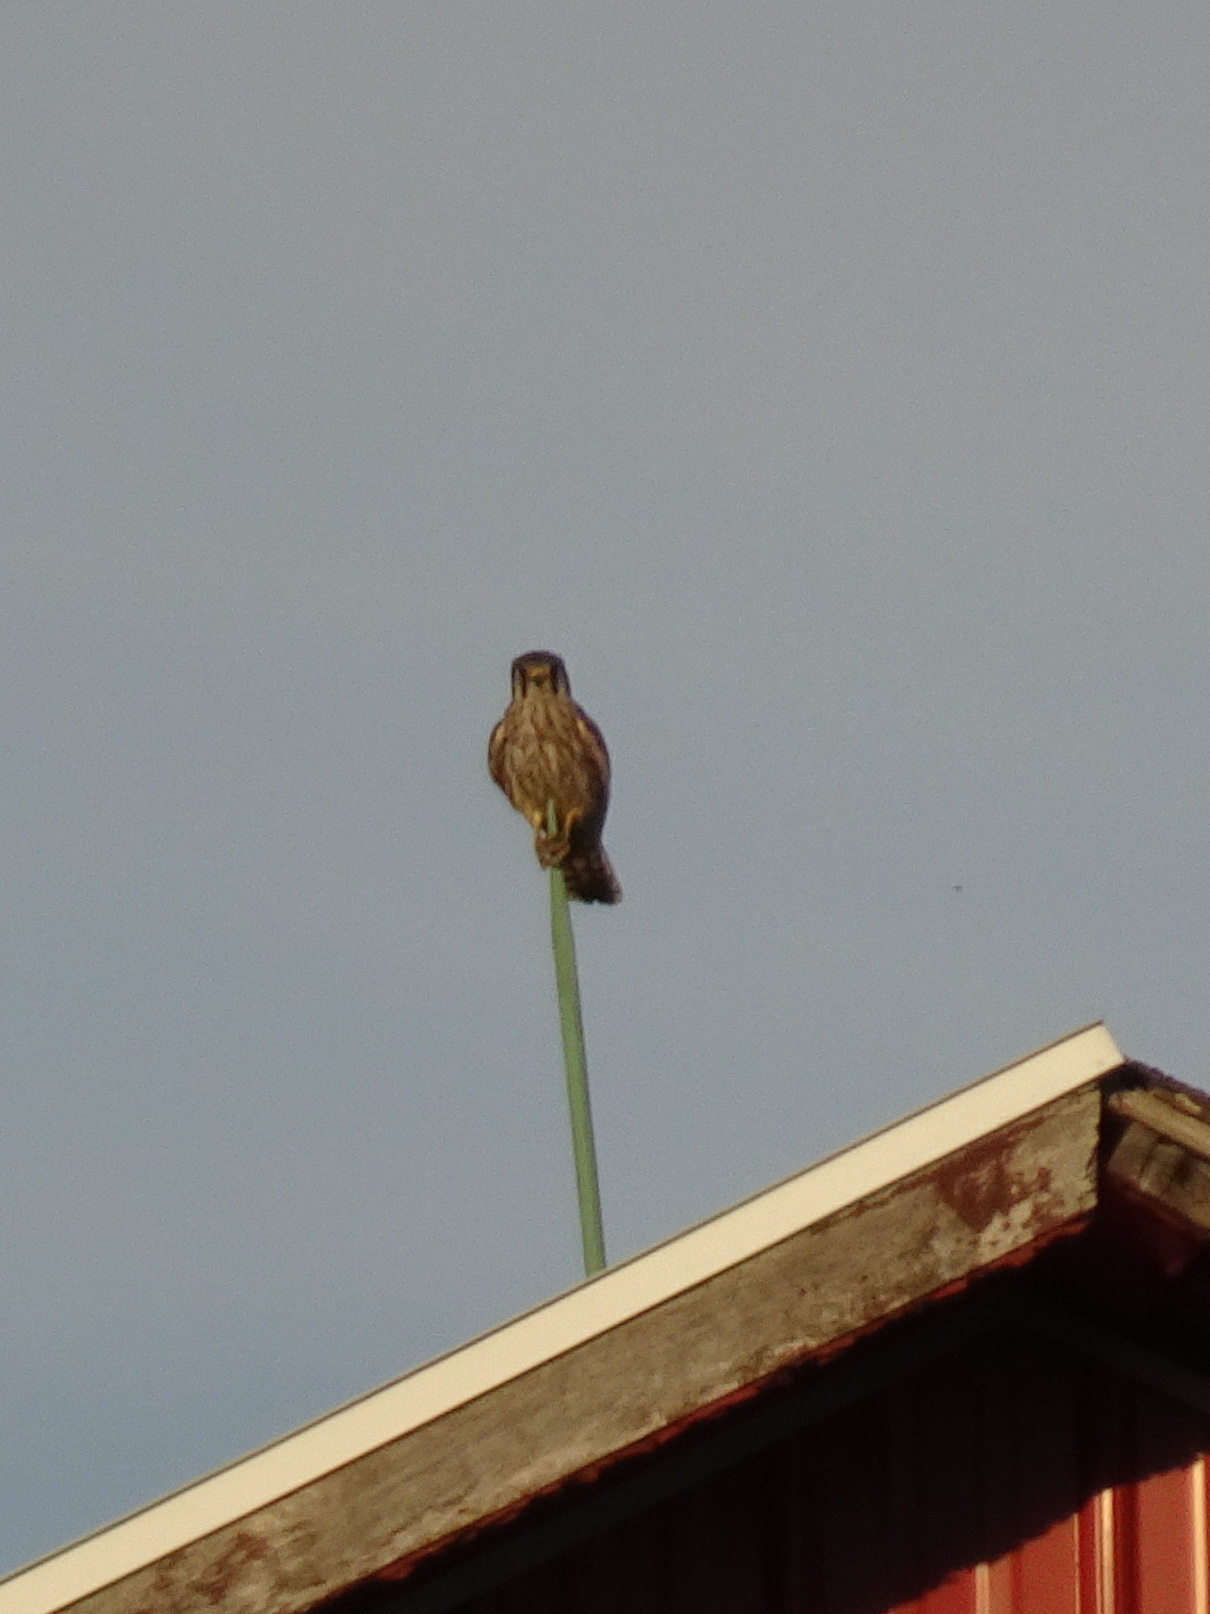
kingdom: Animalia
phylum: Chordata
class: Aves
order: Falconiformes
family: Falconidae
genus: Falco
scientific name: Falco sparverius
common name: American kestrel
